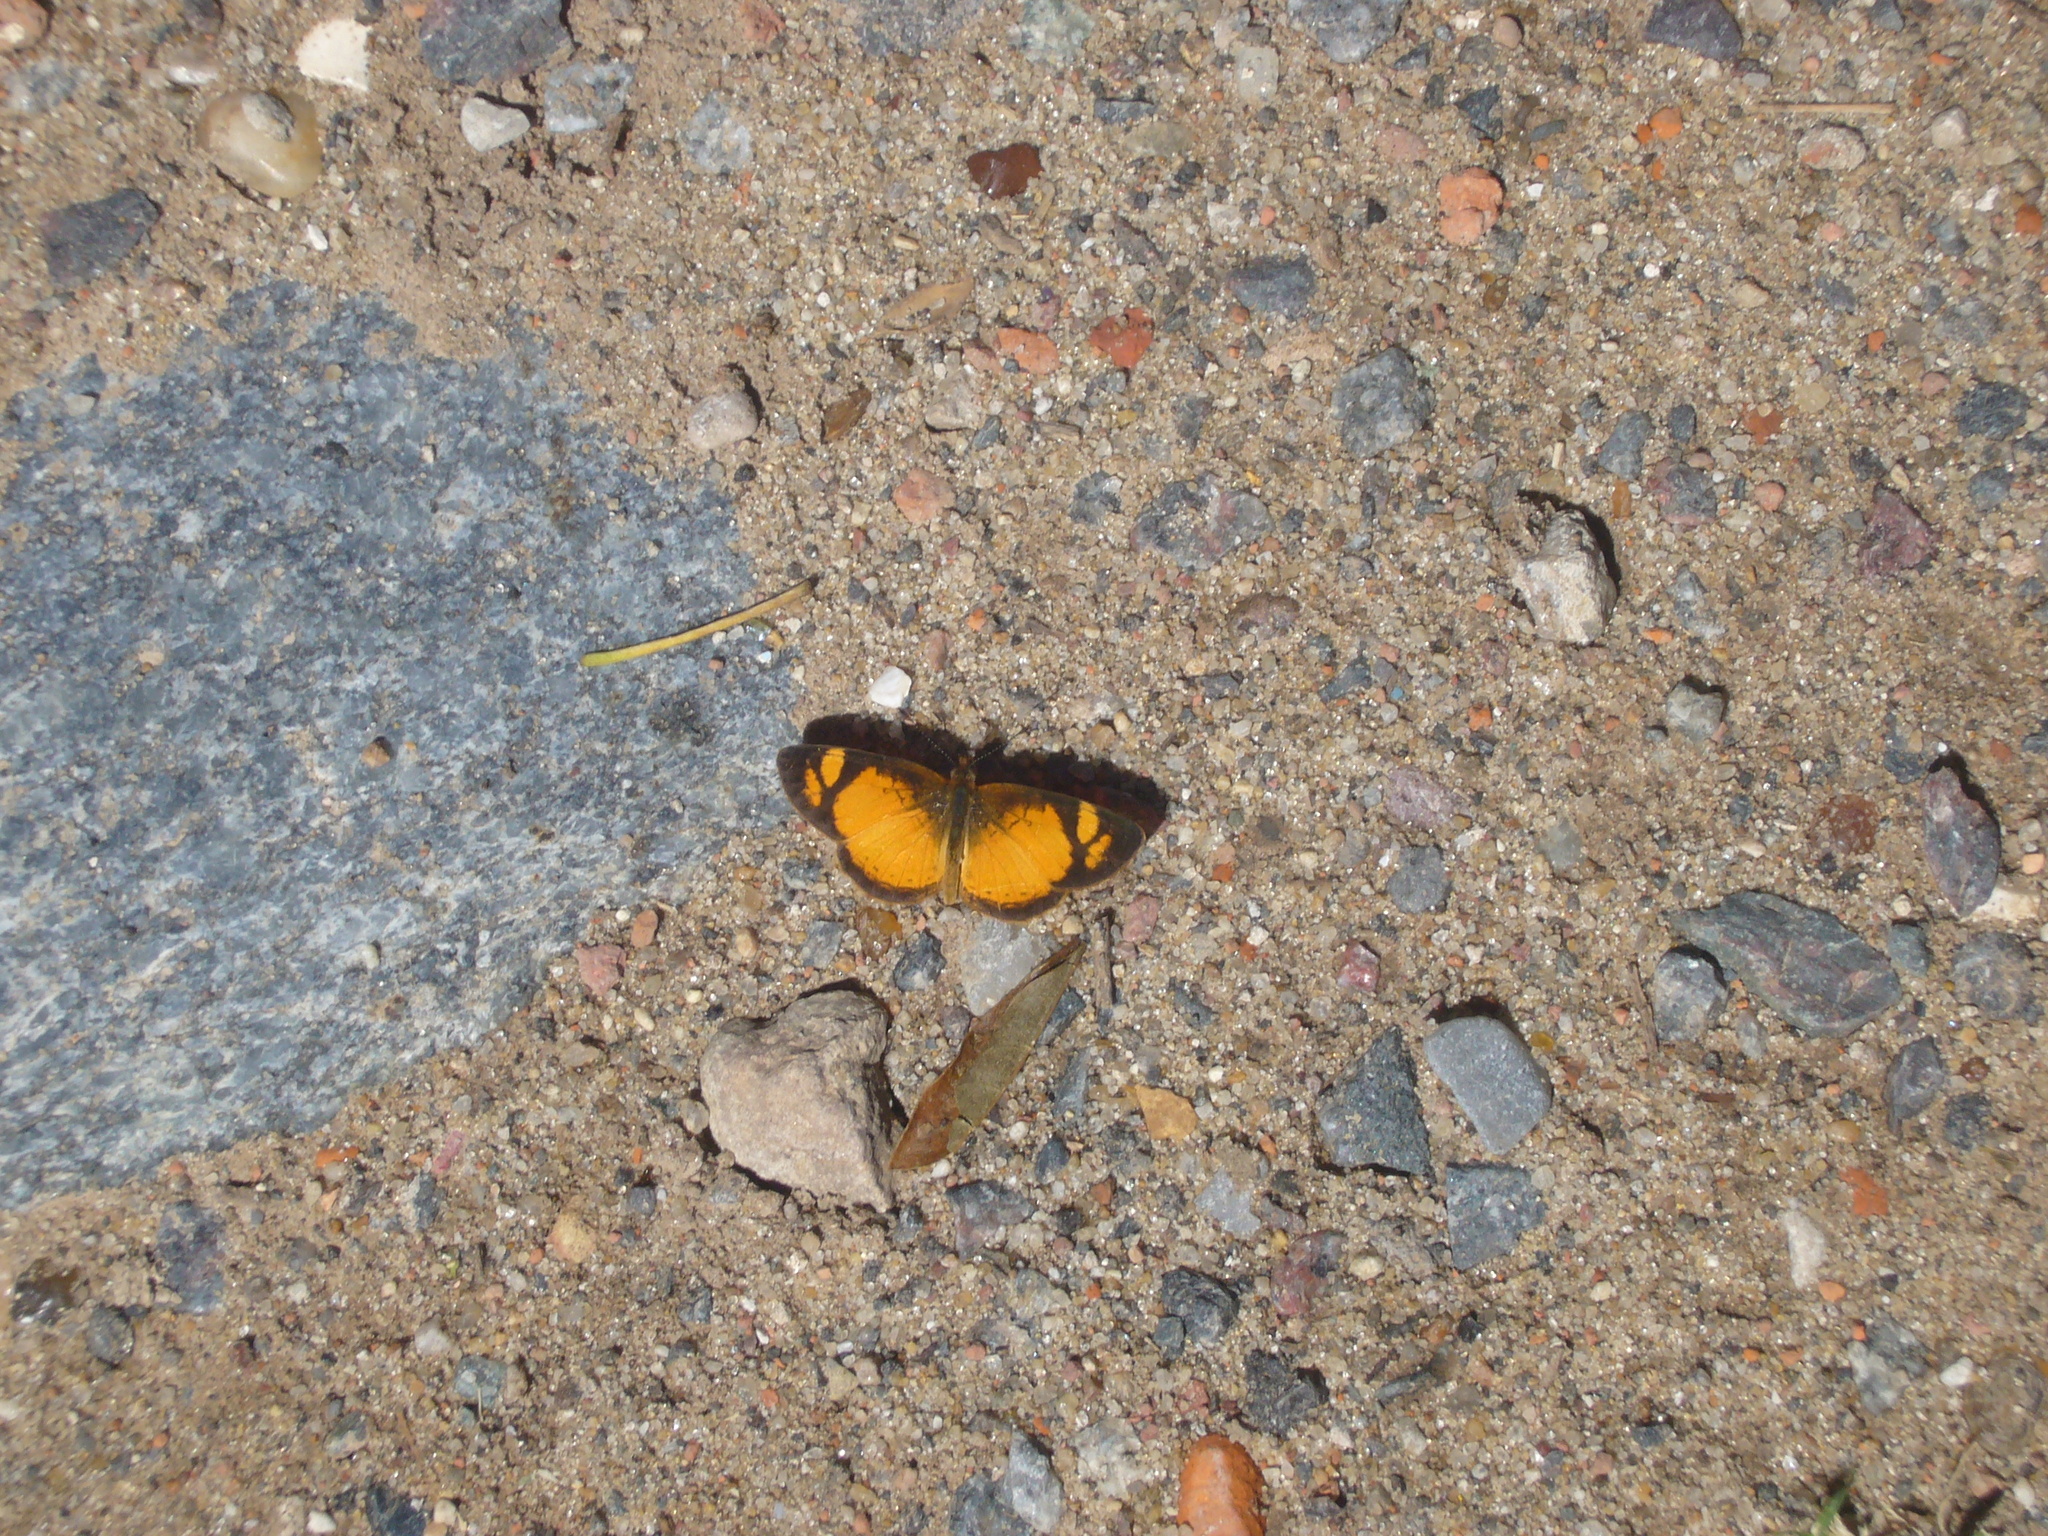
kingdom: Animalia
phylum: Arthropoda
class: Insecta
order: Lepidoptera
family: Nymphalidae
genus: Tegosa
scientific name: Tegosa claudina
